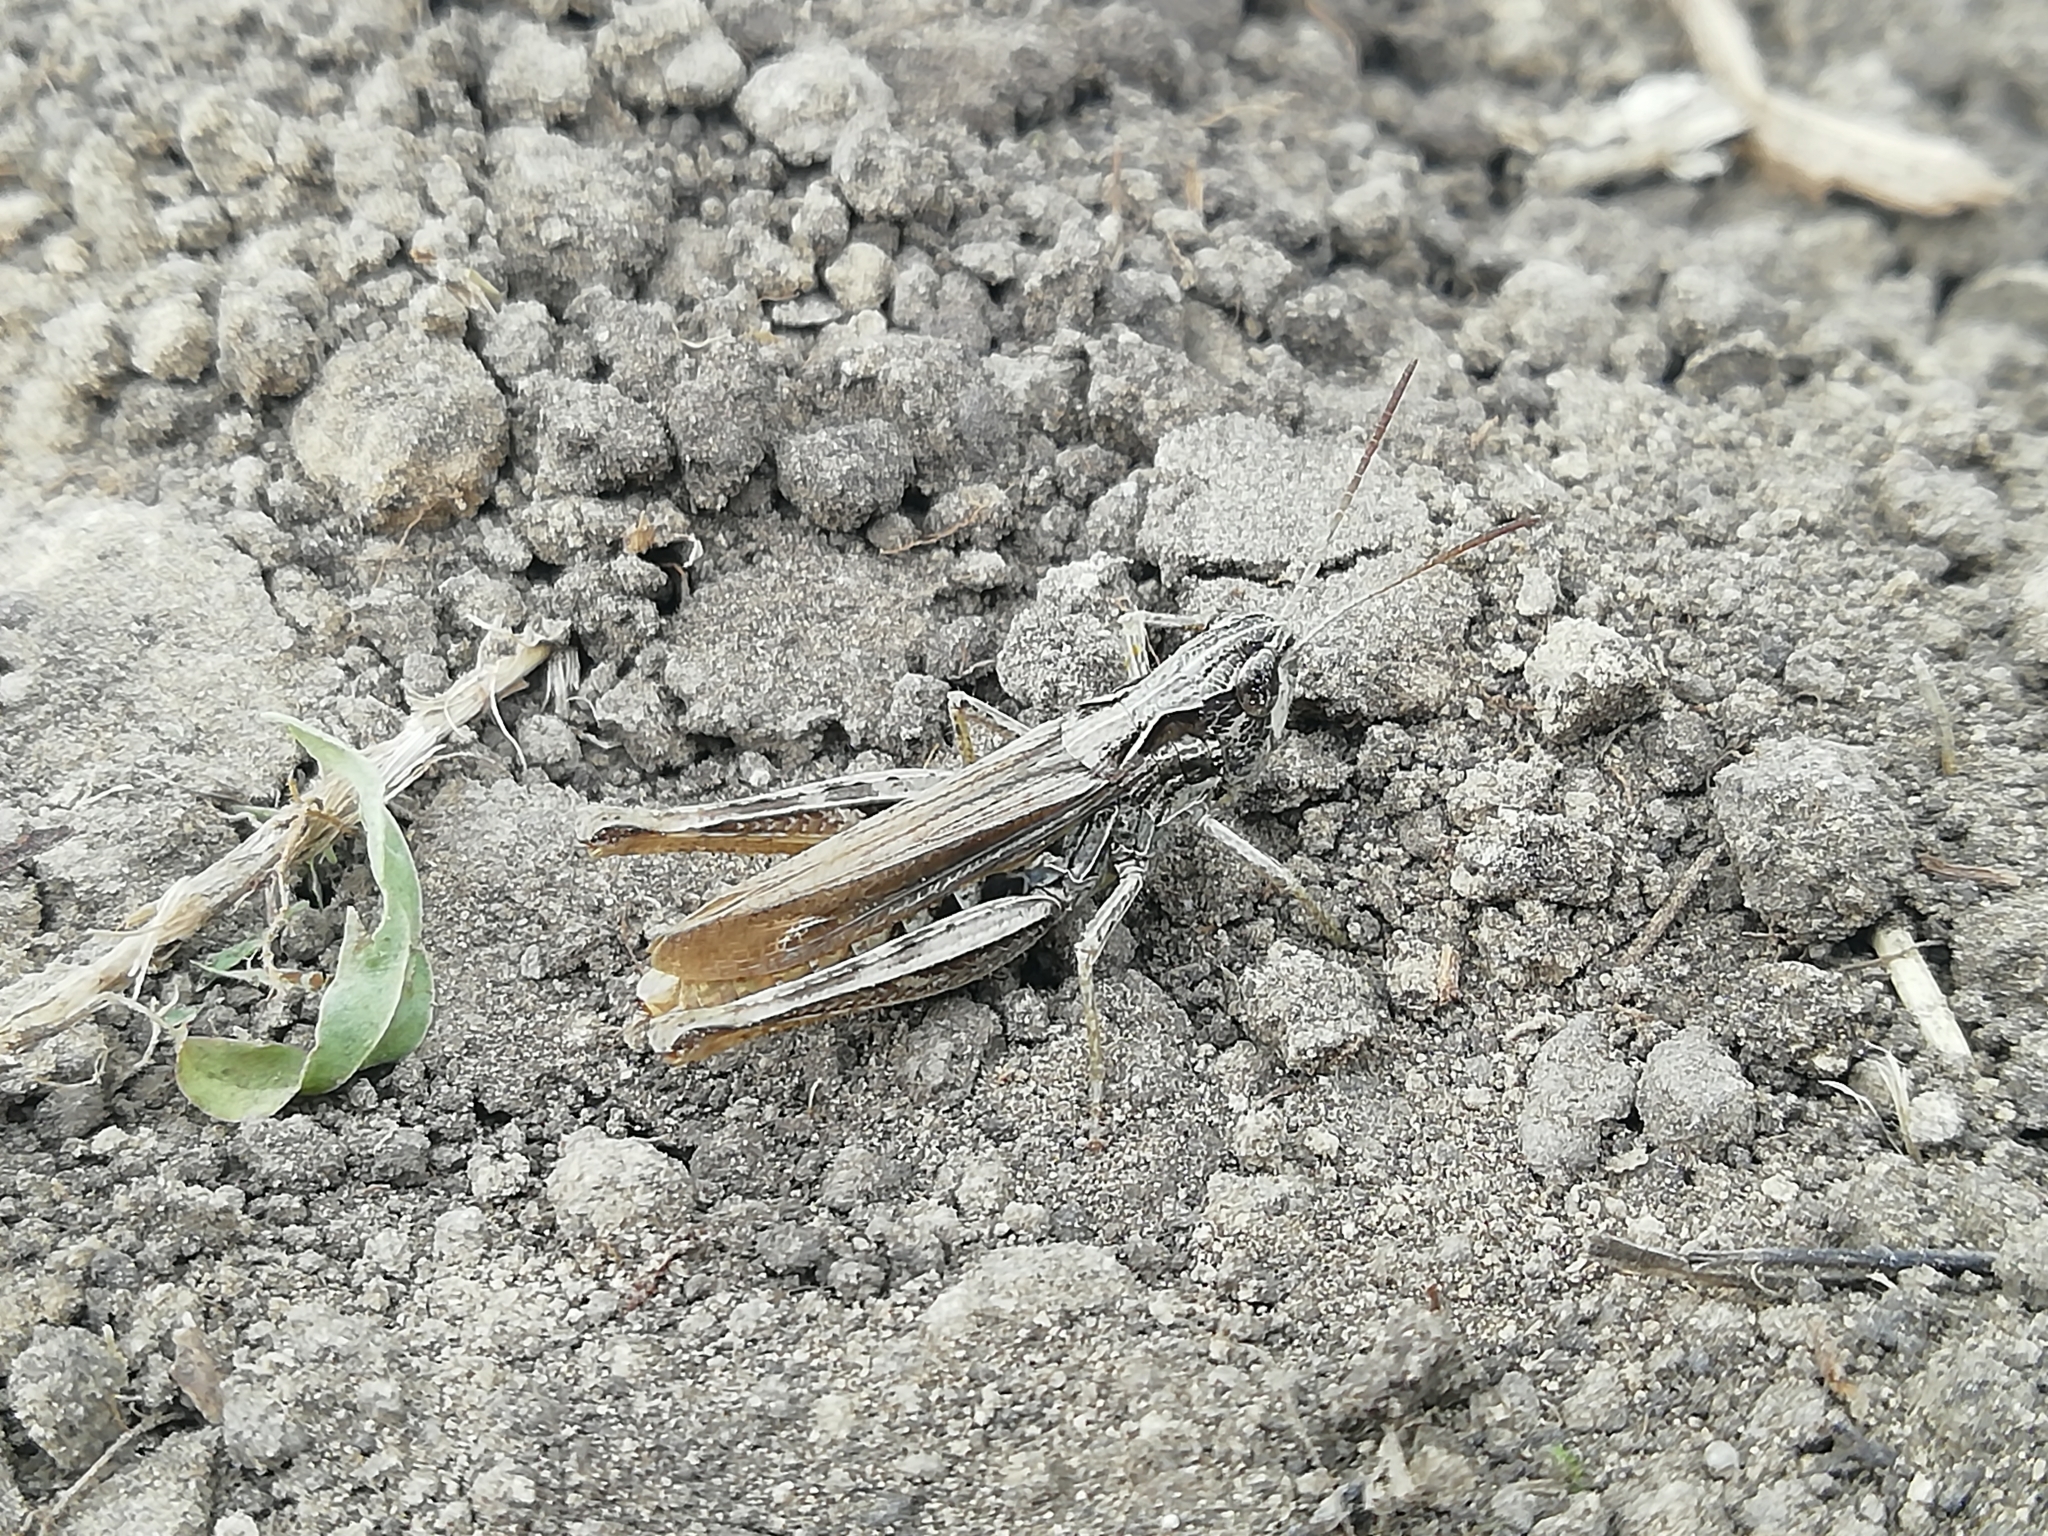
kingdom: Animalia
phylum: Arthropoda
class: Insecta
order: Orthoptera
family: Acrididae
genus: Chorthippus
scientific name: Chorthippus apricarius
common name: Upland field grasshopper
